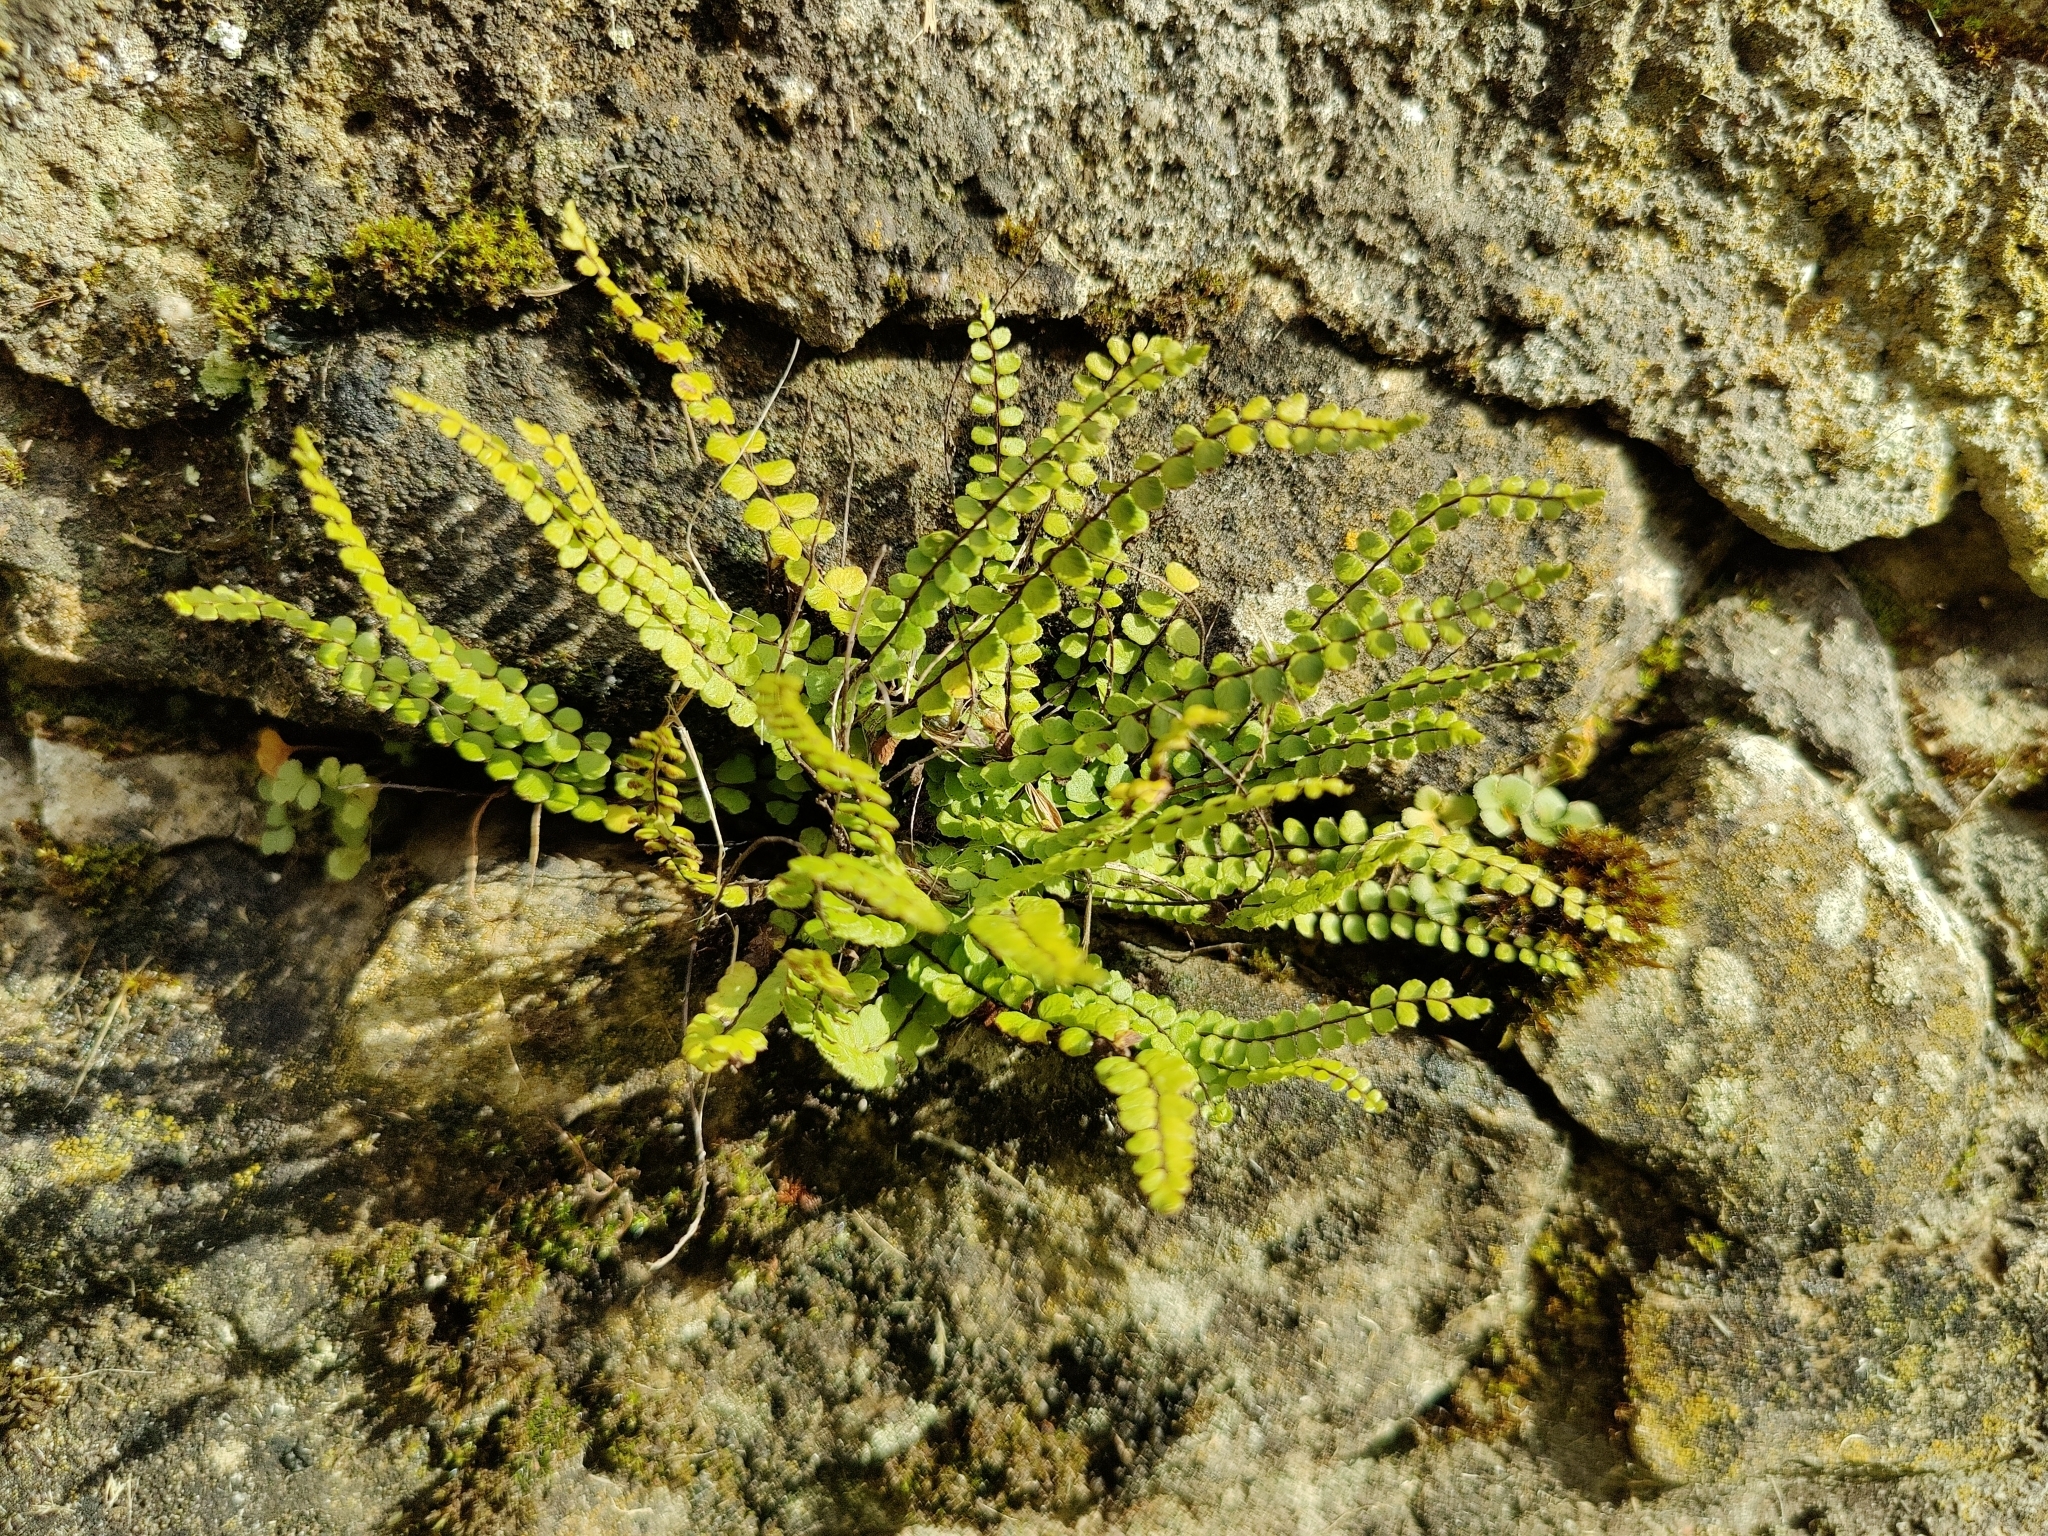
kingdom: Plantae
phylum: Tracheophyta
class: Polypodiopsida
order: Polypodiales
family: Aspleniaceae
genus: Asplenium
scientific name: Asplenium trichomanes
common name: Maidenhair spleenwort
